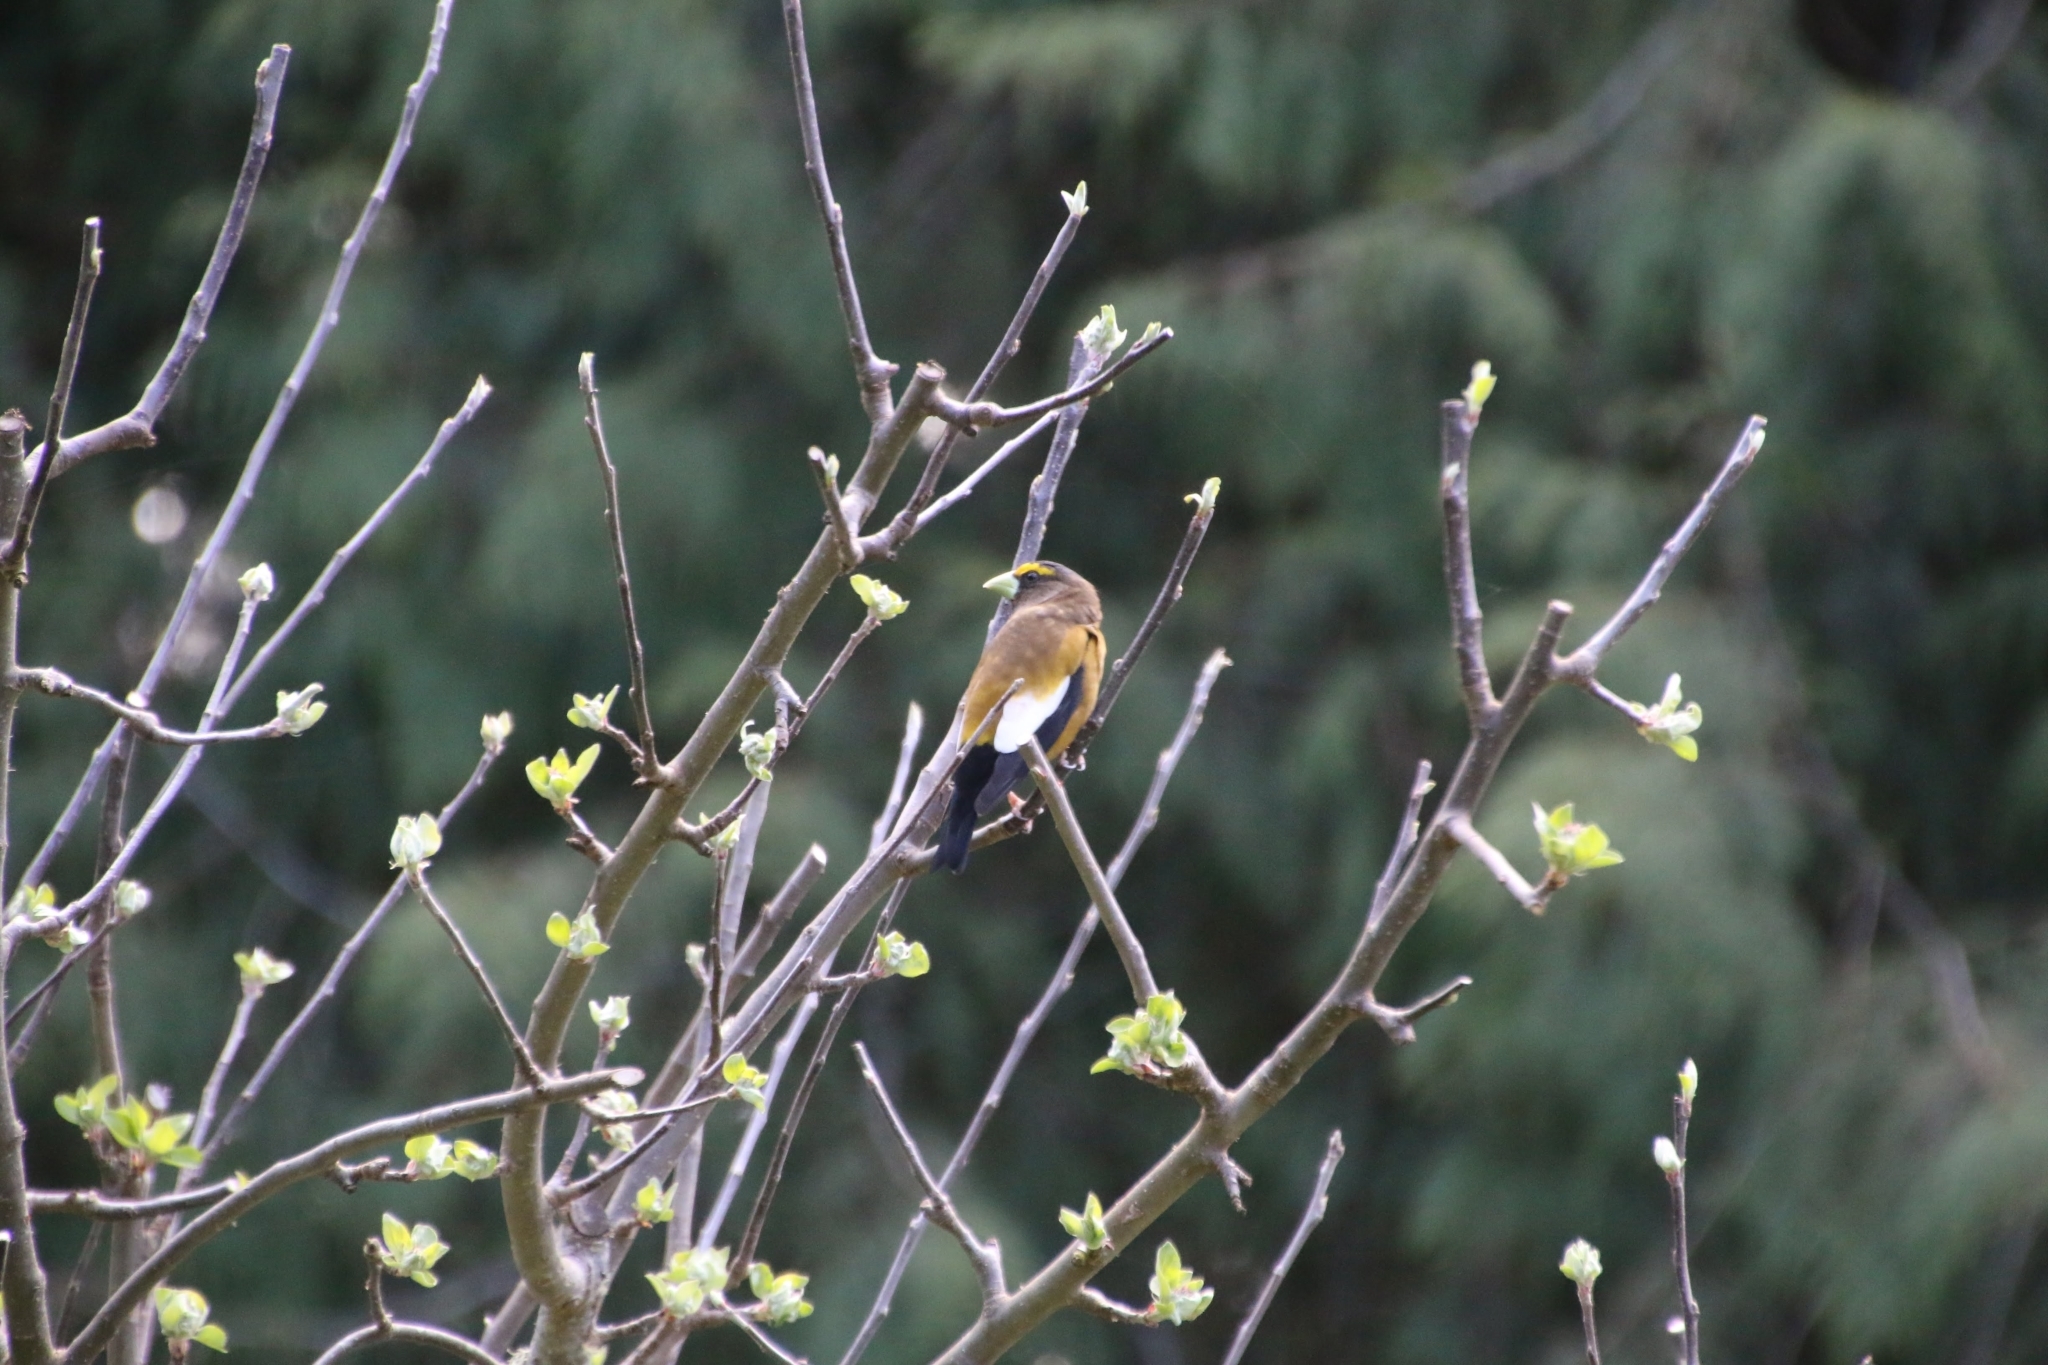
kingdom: Animalia
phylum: Chordata
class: Aves
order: Passeriformes
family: Fringillidae
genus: Hesperiphona
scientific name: Hesperiphona vespertina
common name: Evening grosbeak
